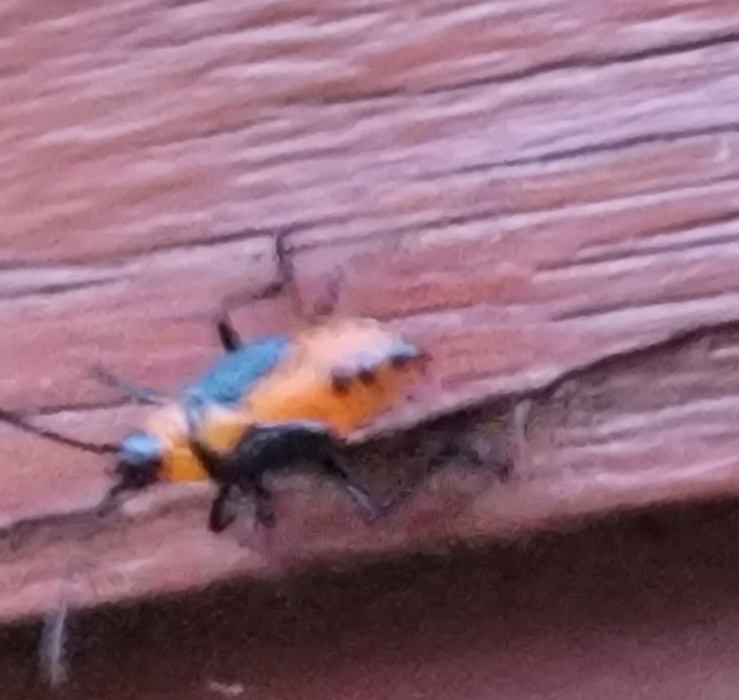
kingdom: Animalia
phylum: Arthropoda
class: Insecta
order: Hemiptera
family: Lygaeidae
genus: Oncopeltus
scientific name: Oncopeltus fasciatus
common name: Large milkweed bug
